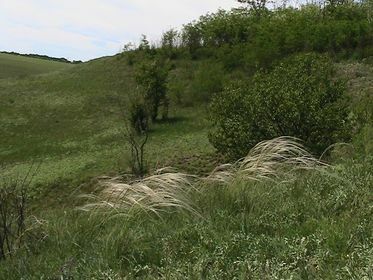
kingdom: Plantae
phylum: Tracheophyta
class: Liliopsida
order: Poales
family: Poaceae
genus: Stipa
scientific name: Stipa pennata
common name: European feather grass
